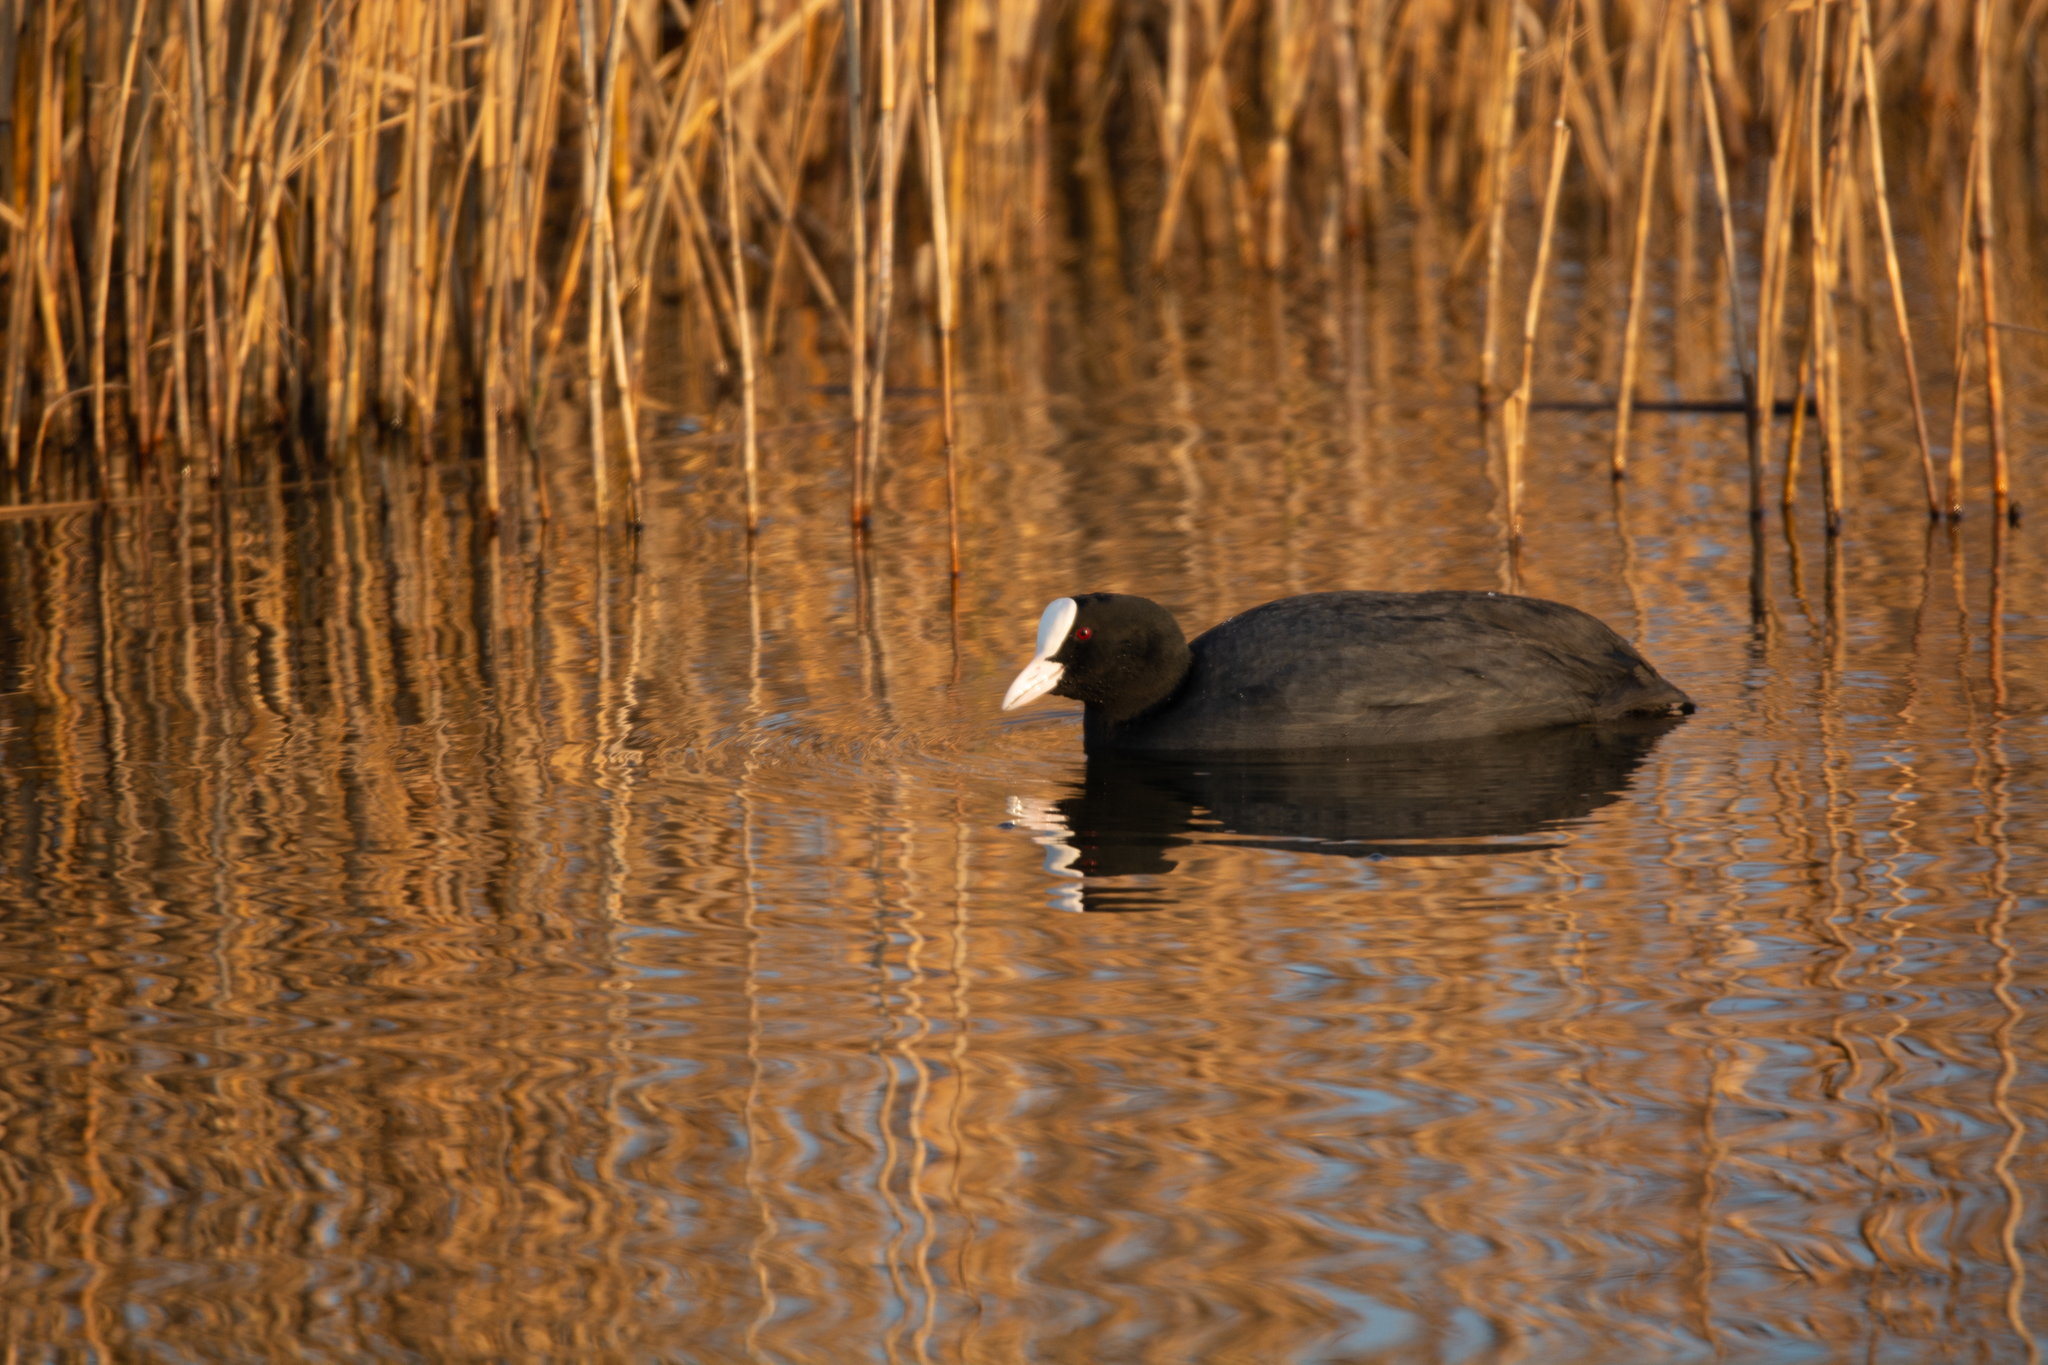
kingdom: Animalia
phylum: Chordata
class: Aves
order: Gruiformes
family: Rallidae
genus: Fulica
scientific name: Fulica atra
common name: Eurasian coot
